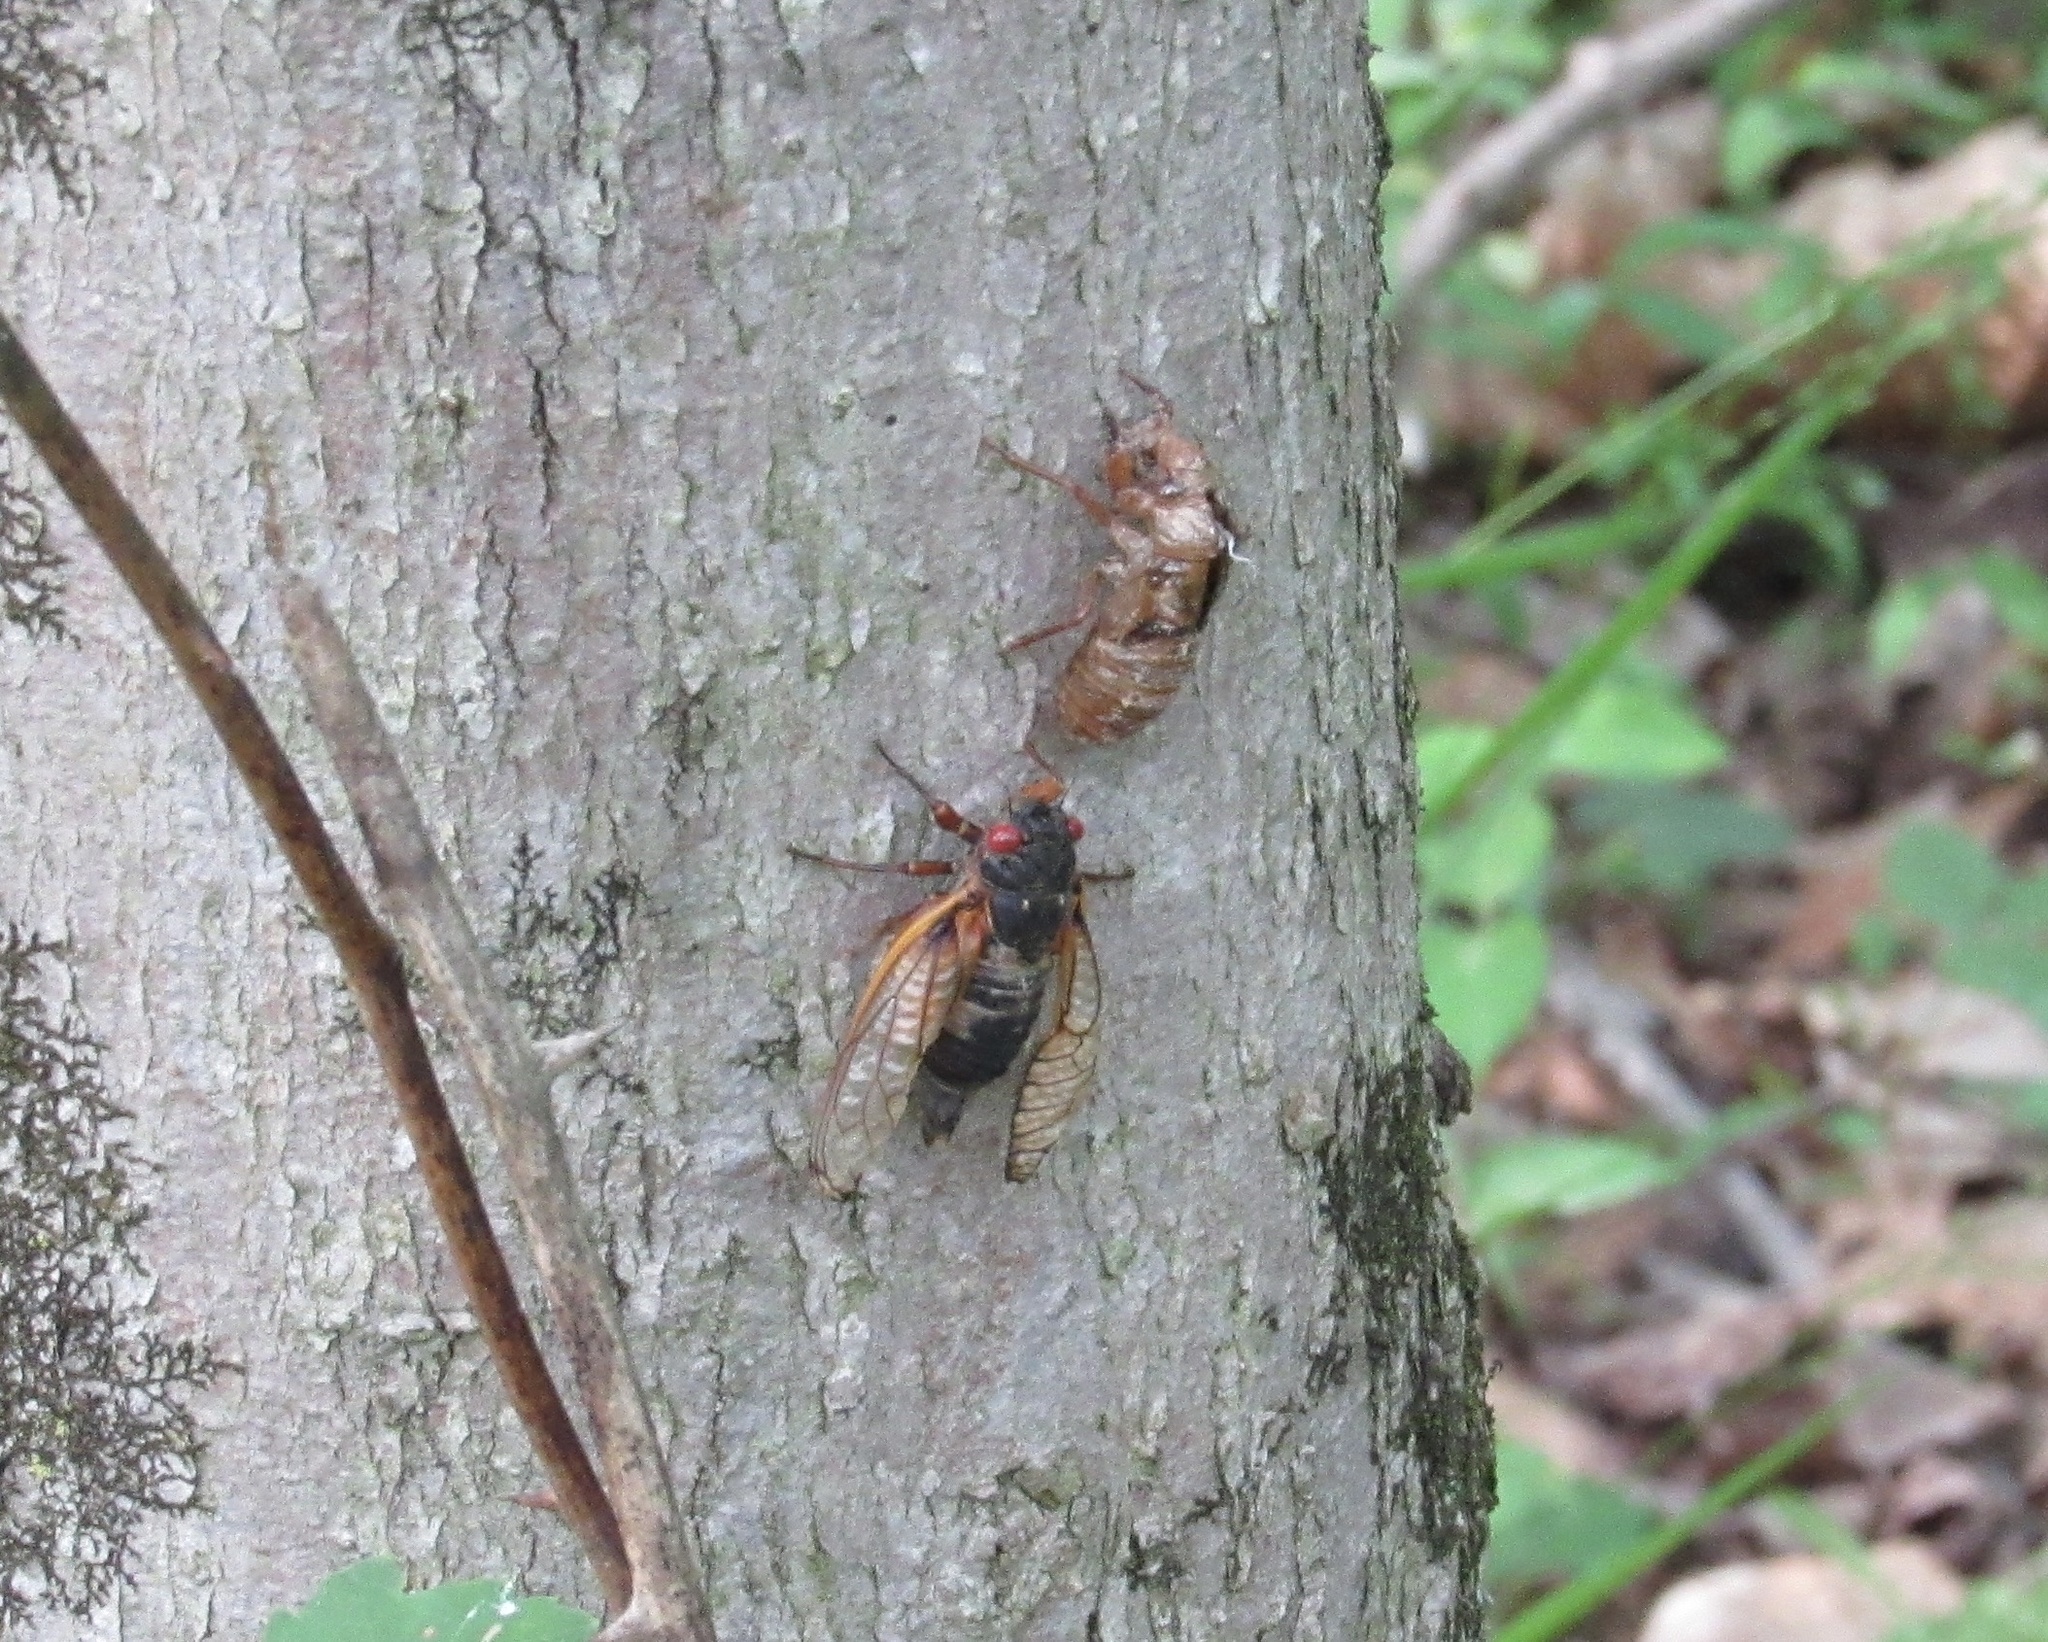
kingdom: Animalia
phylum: Arthropoda
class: Insecta
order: Hemiptera
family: Cicadidae
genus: Magicicada
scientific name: Magicicada
